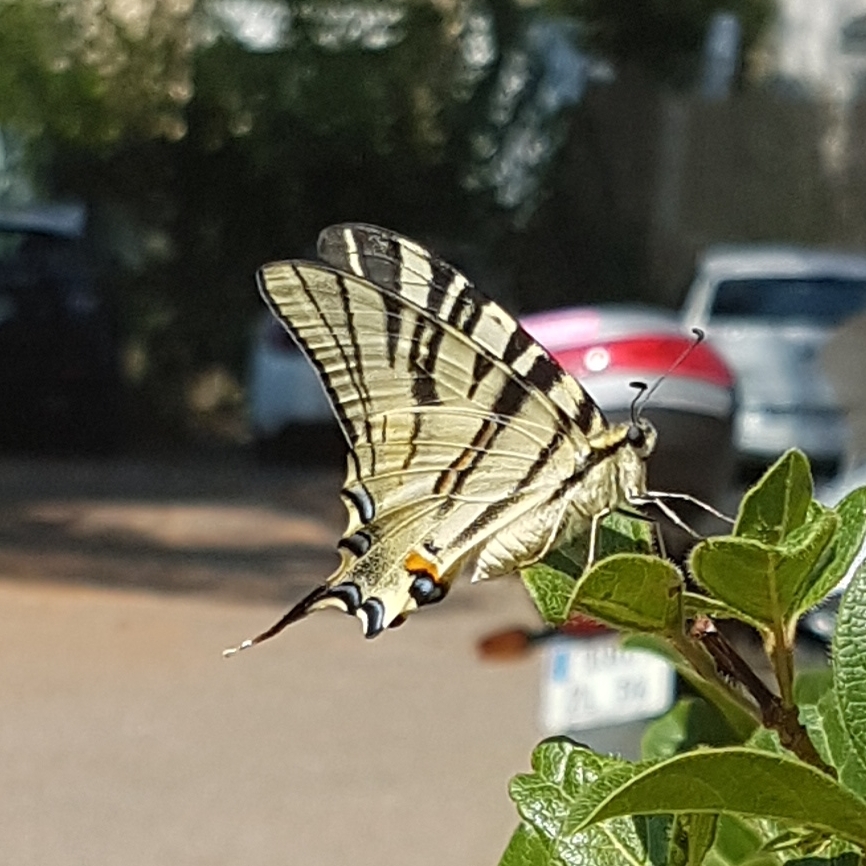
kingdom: Animalia
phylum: Arthropoda
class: Insecta
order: Lepidoptera
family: Papilionidae
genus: Iphiclides
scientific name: Iphiclides podalirius
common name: Scarce swallowtail
